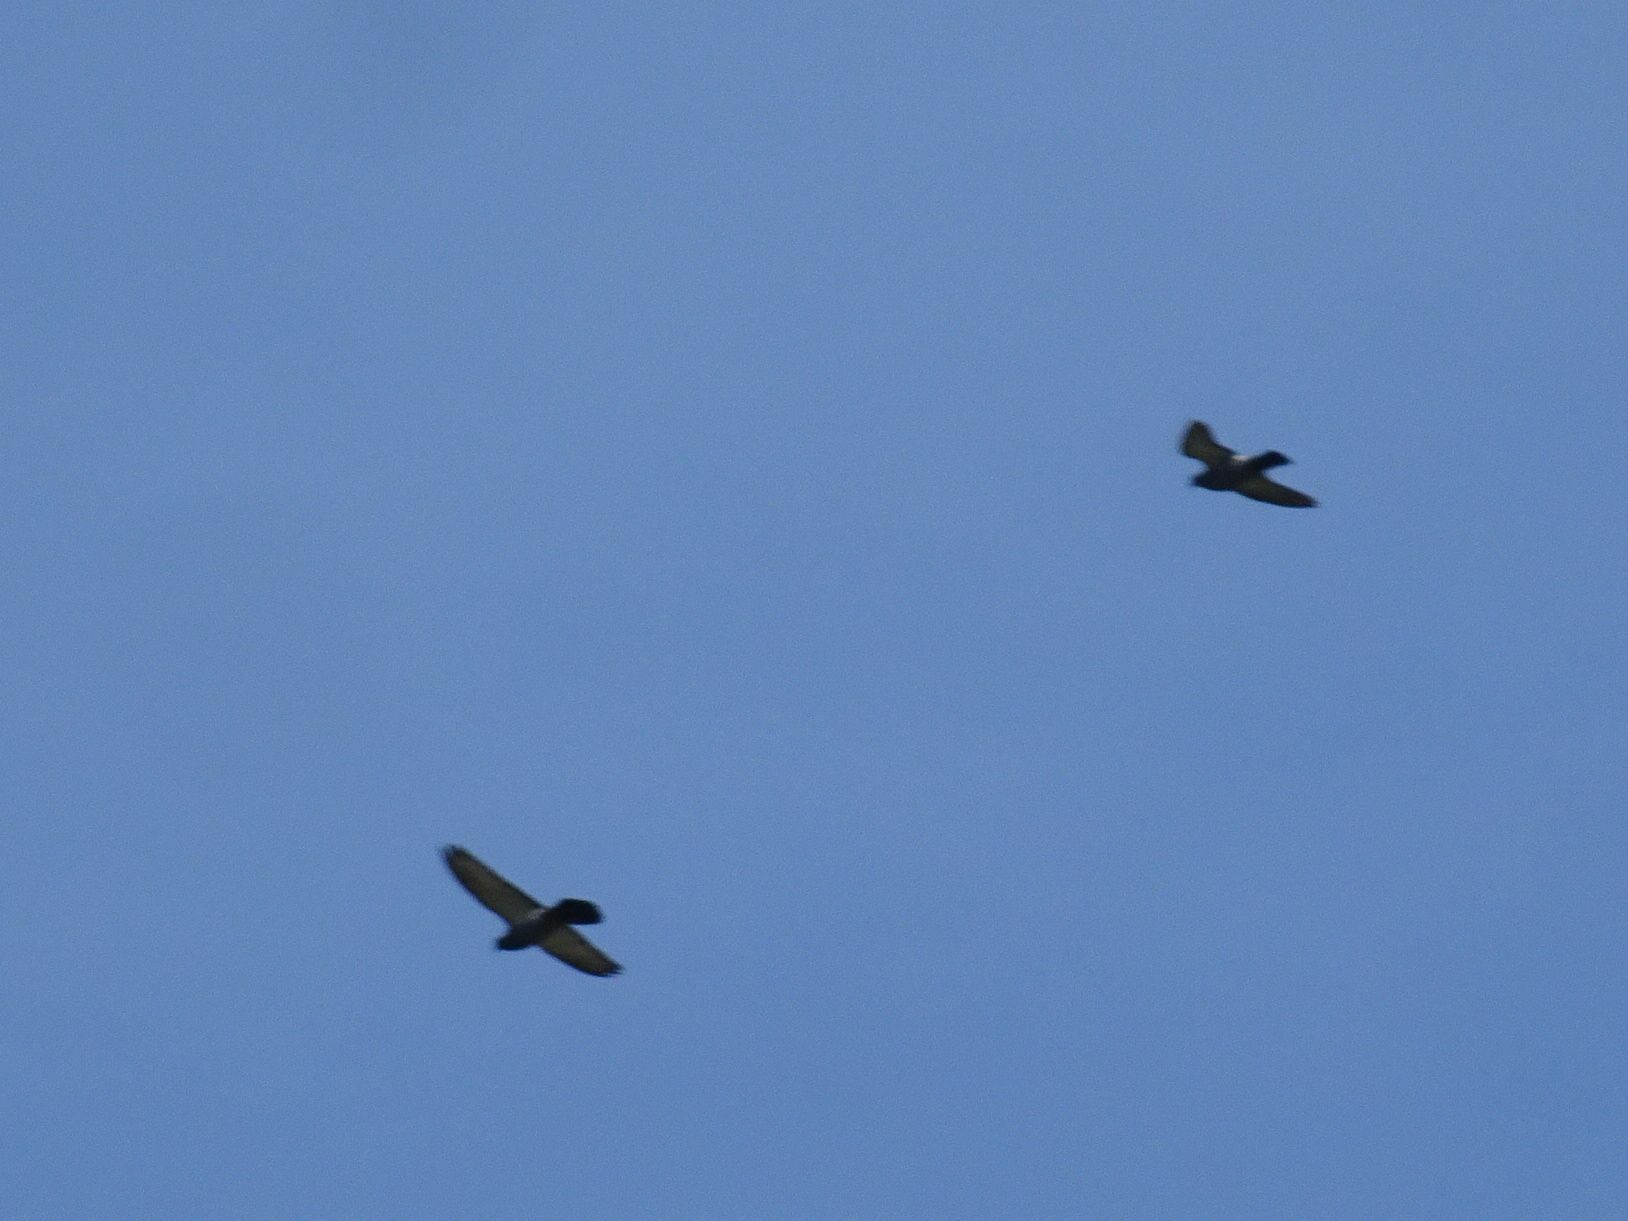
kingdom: Animalia
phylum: Chordata
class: Aves
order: Columbiformes
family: Columbidae
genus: Columba
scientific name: Columba livia
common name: Rock pigeon
